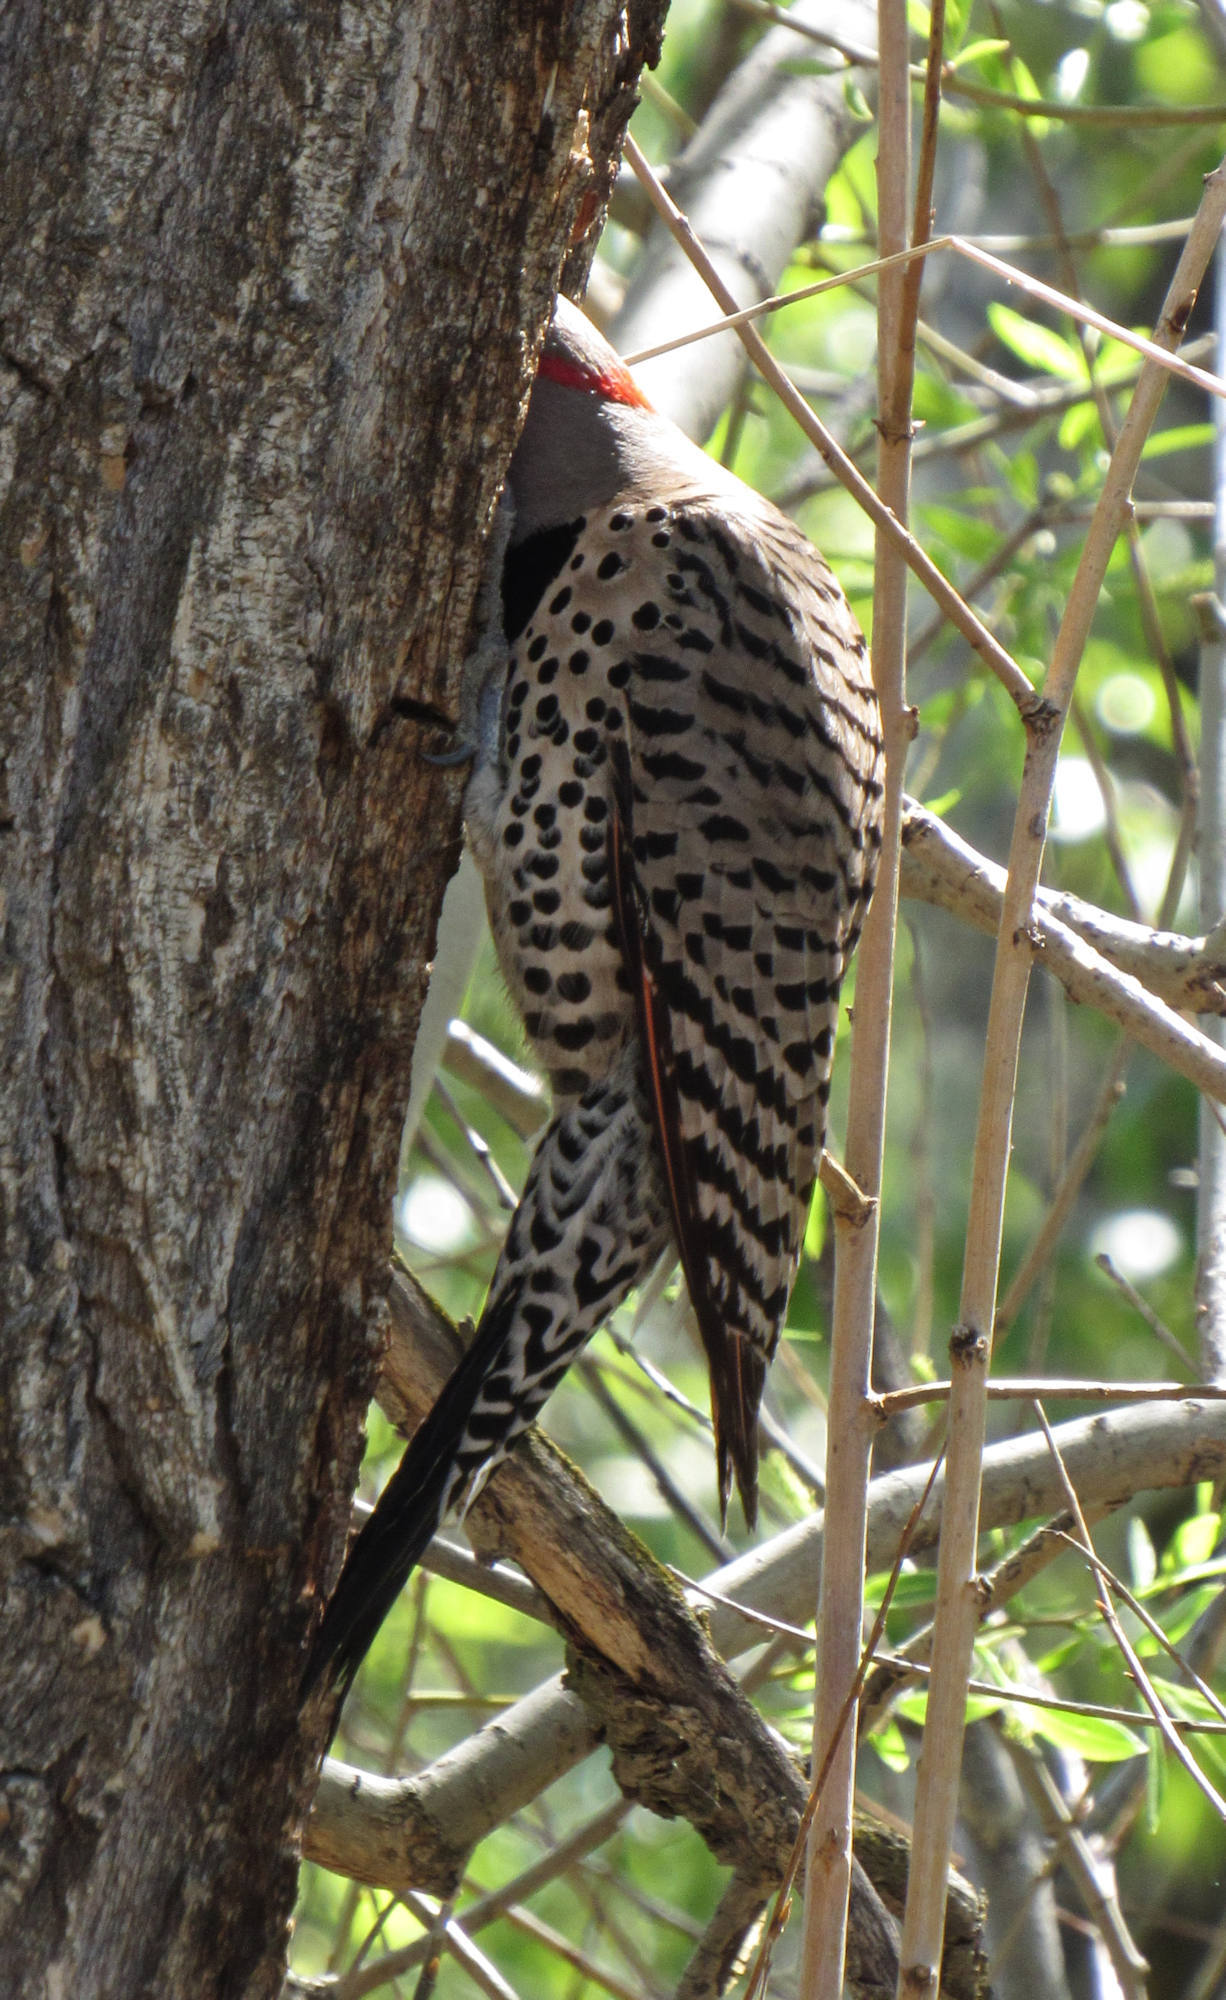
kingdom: Animalia
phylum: Chordata
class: Aves
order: Piciformes
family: Picidae
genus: Colaptes
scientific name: Colaptes auratus
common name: Northern flicker
